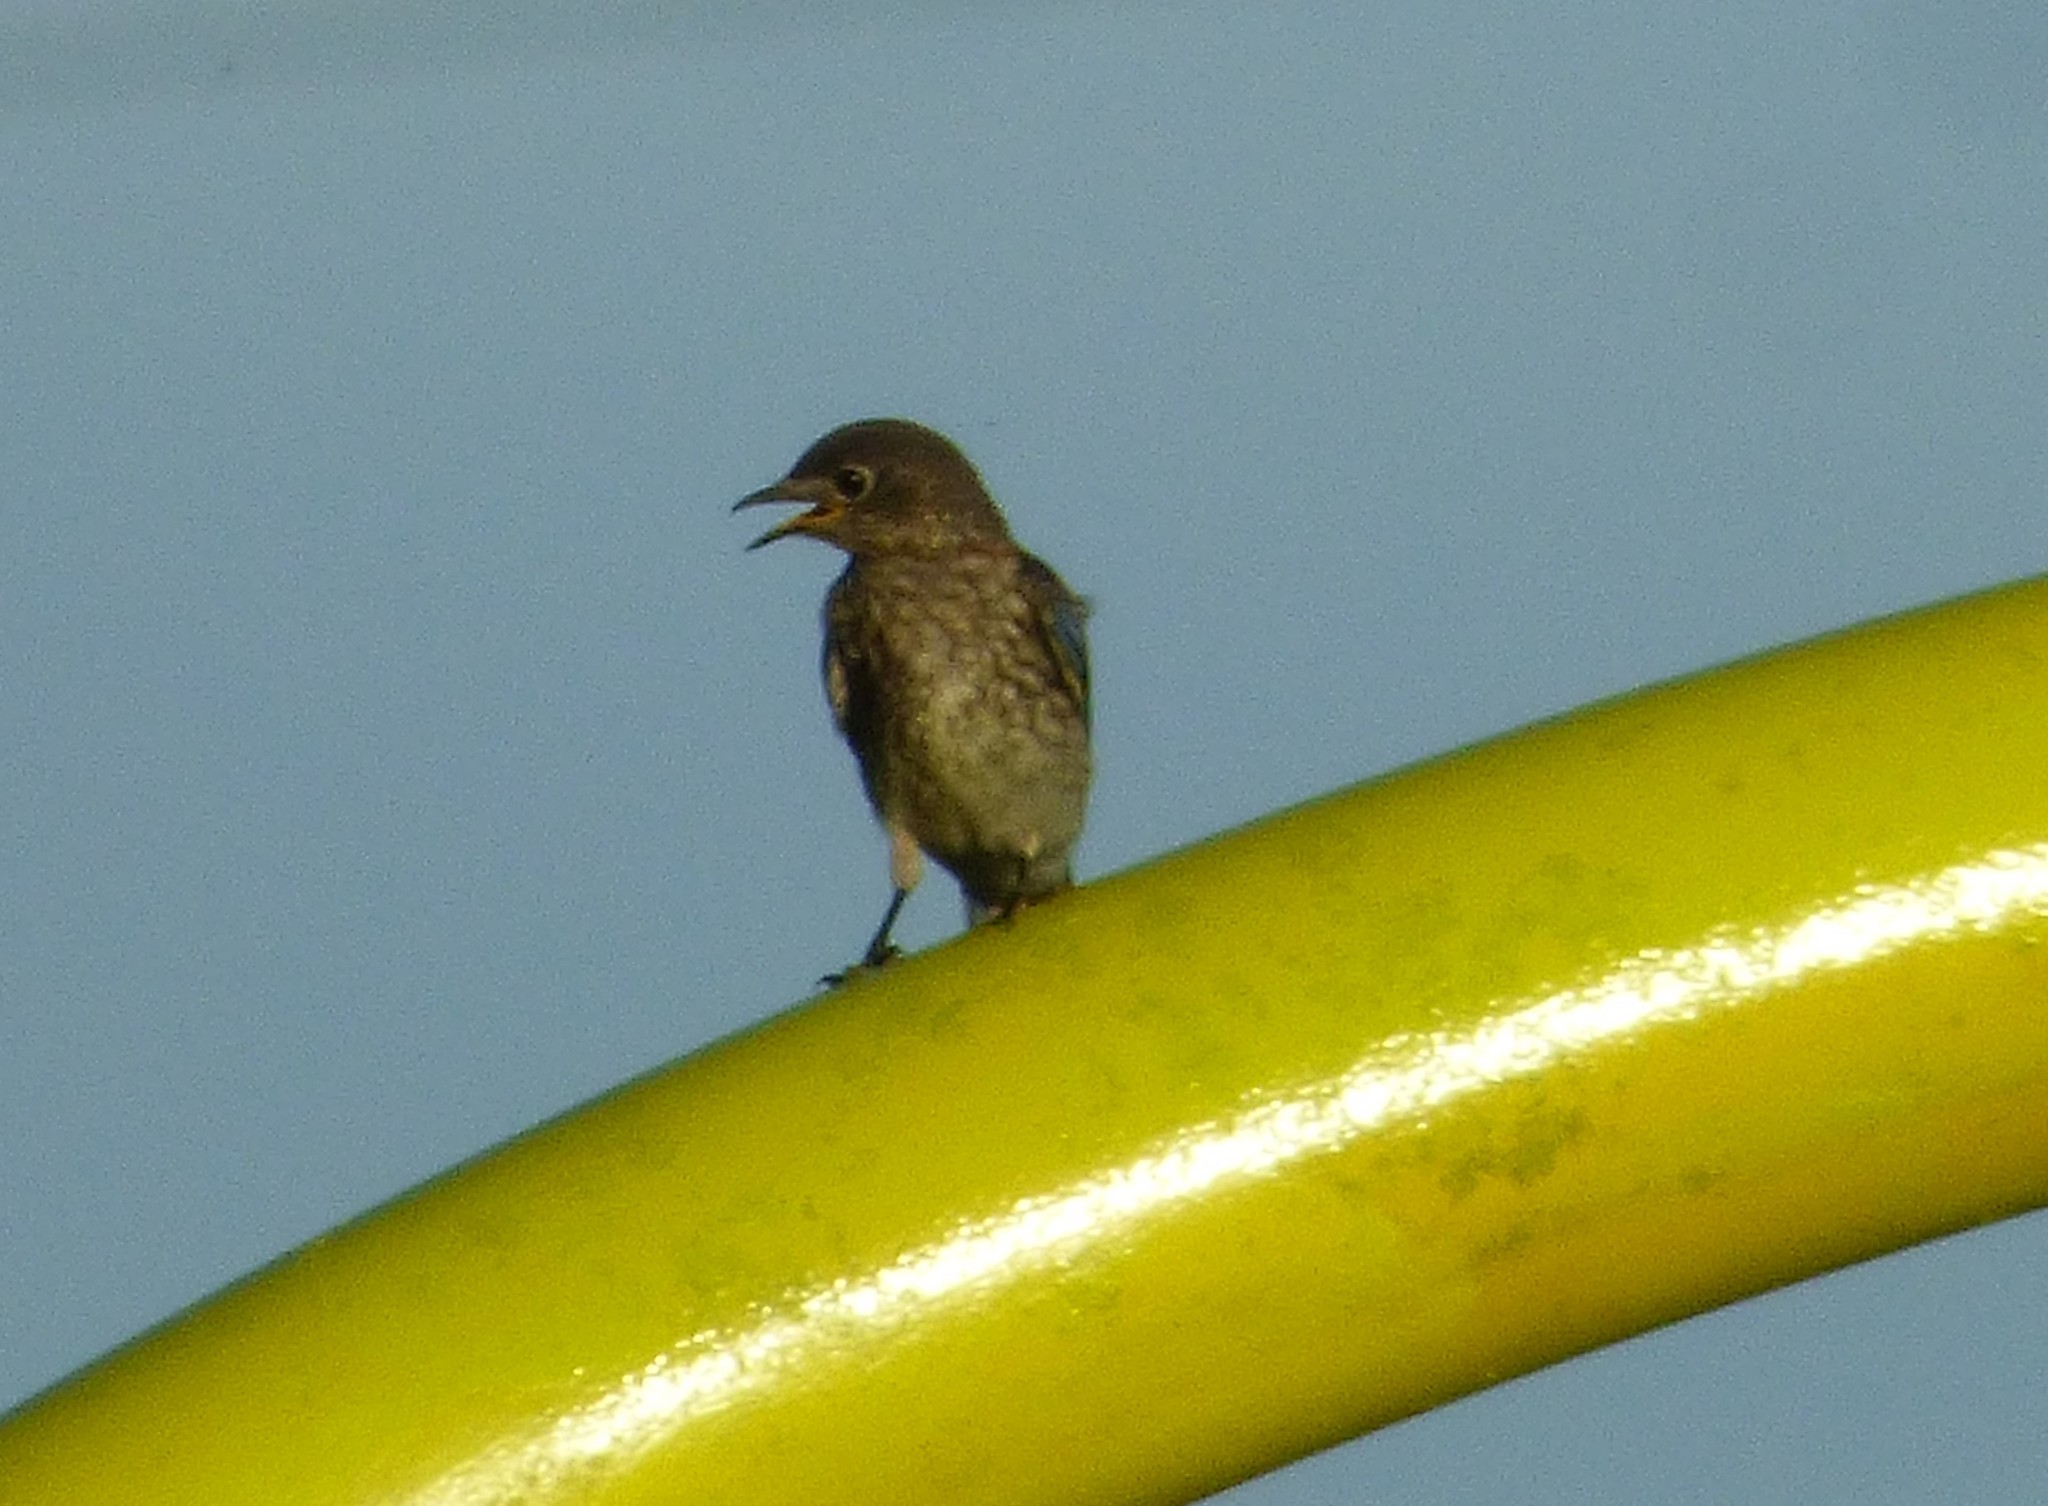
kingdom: Animalia
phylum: Chordata
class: Aves
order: Passeriformes
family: Turdidae
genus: Sialia
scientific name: Sialia sialis
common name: Eastern bluebird
